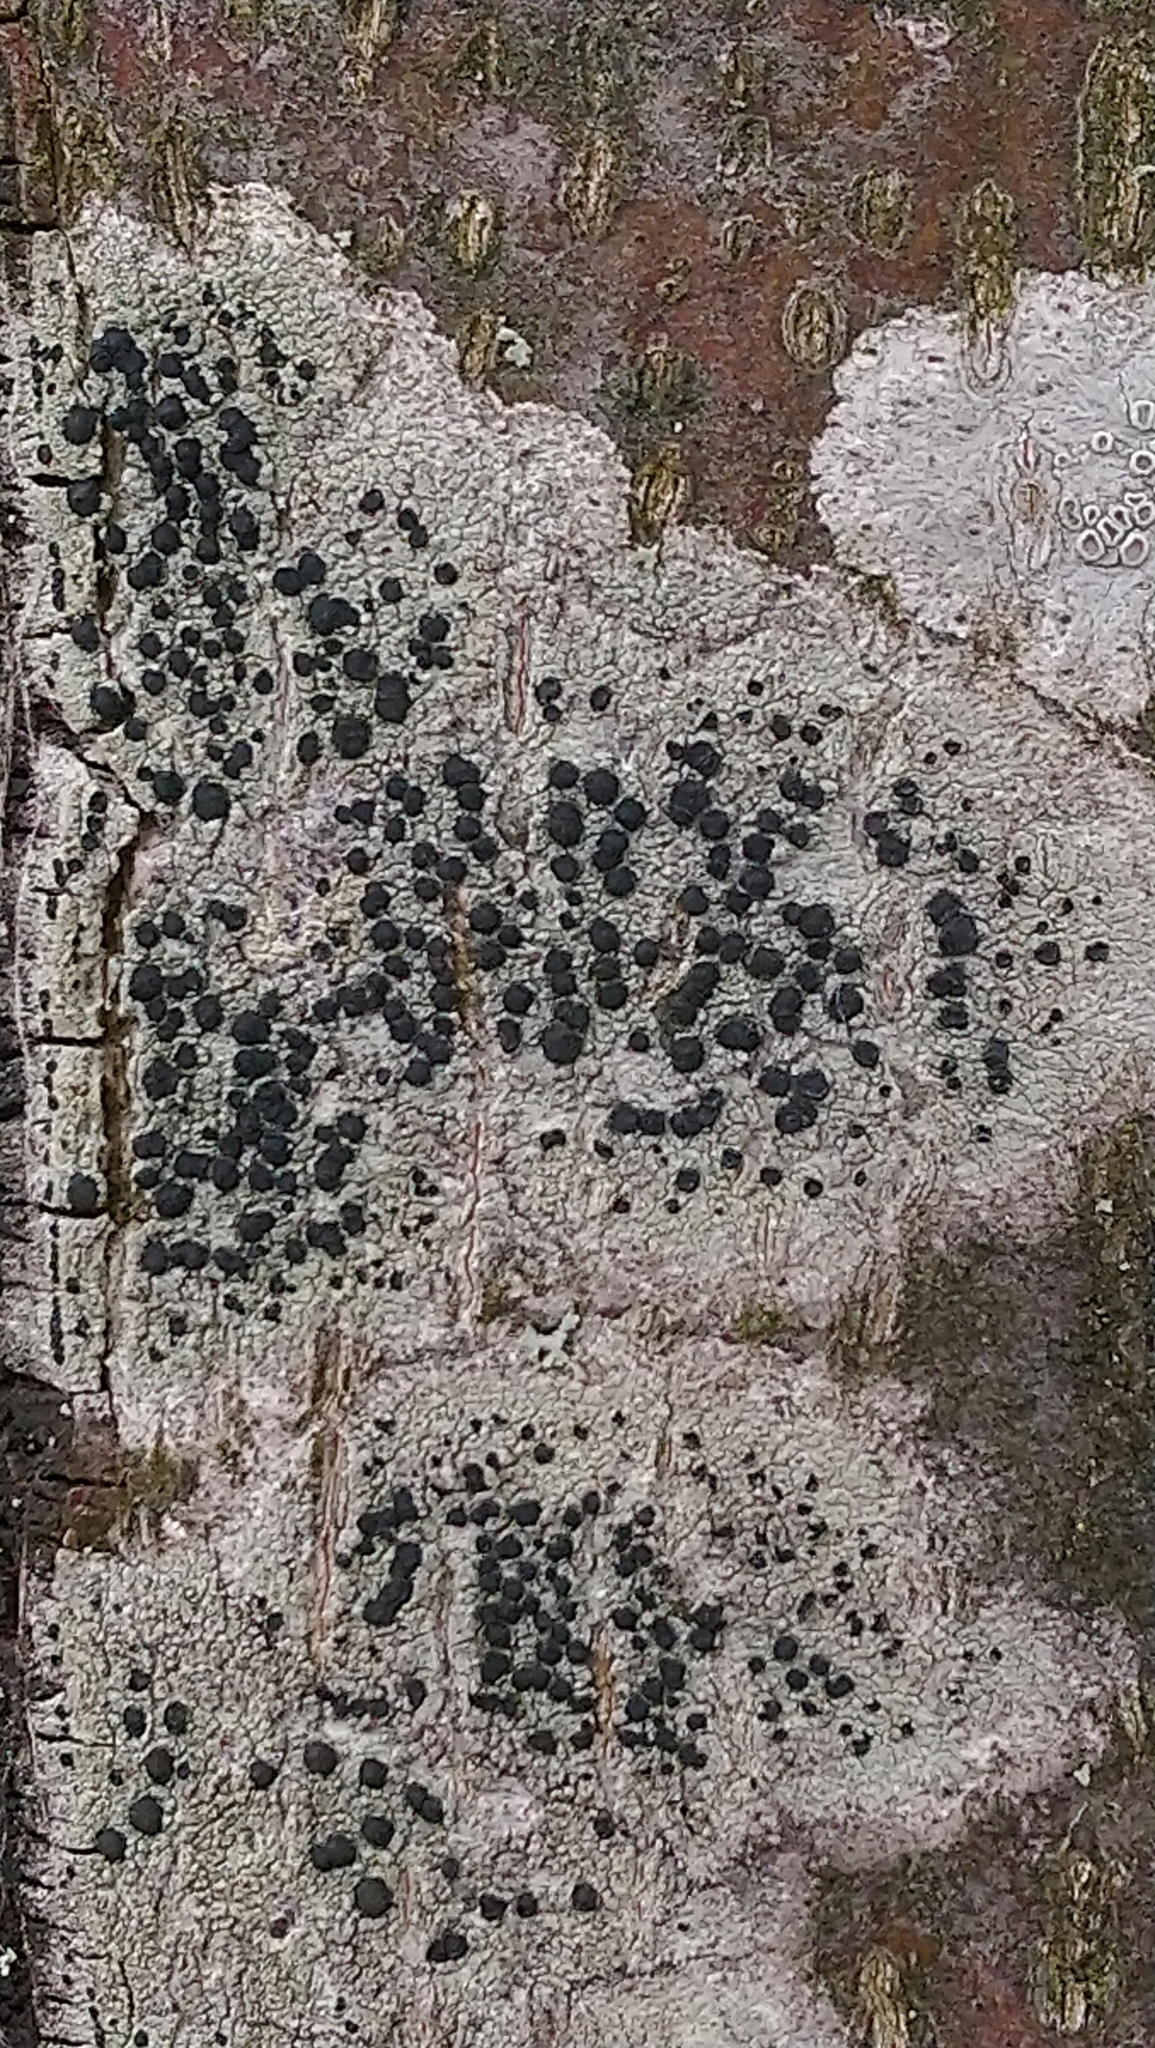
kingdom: Fungi
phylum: Ascomycota
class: Lecanoromycetes
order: Lecanorales
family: Lecanoraceae
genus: Lecidella
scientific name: Lecidella elaeochroma
